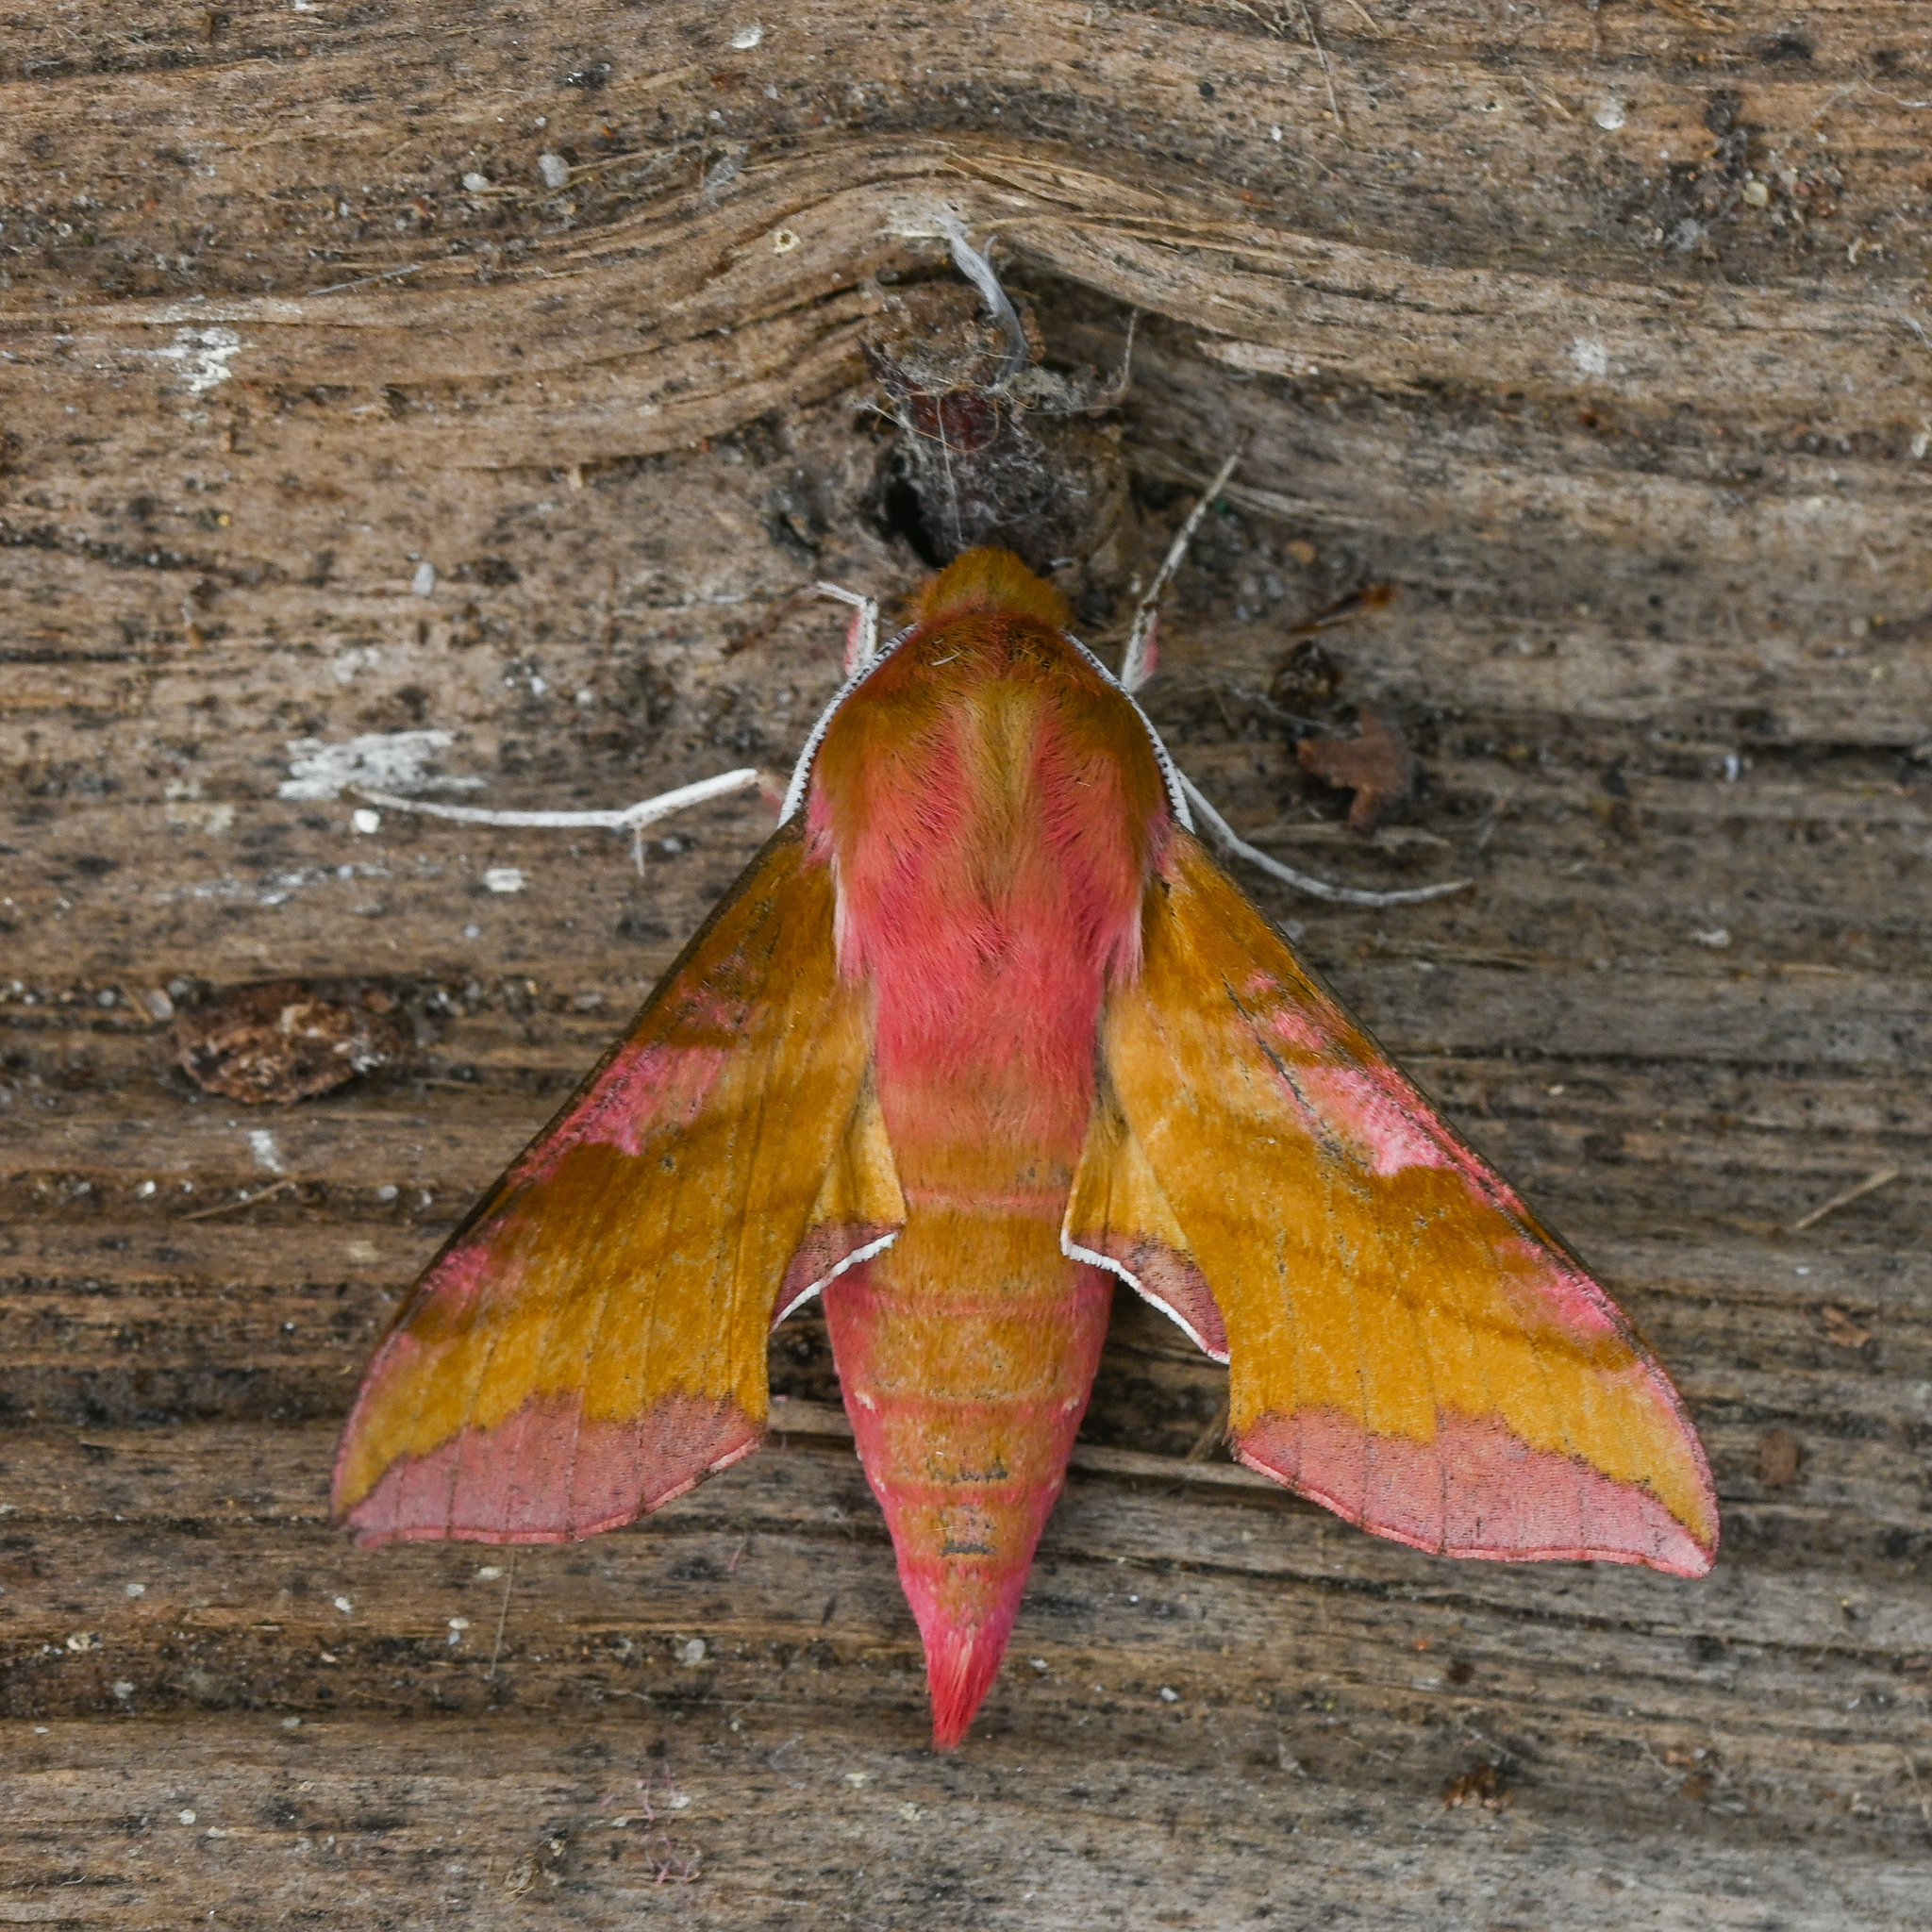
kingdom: Animalia
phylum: Arthropoda
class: Insecta
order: Lepidoptera
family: Sphingidae
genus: Deilephila
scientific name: Deilephila porcellus
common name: Small elephant hawk-moth
